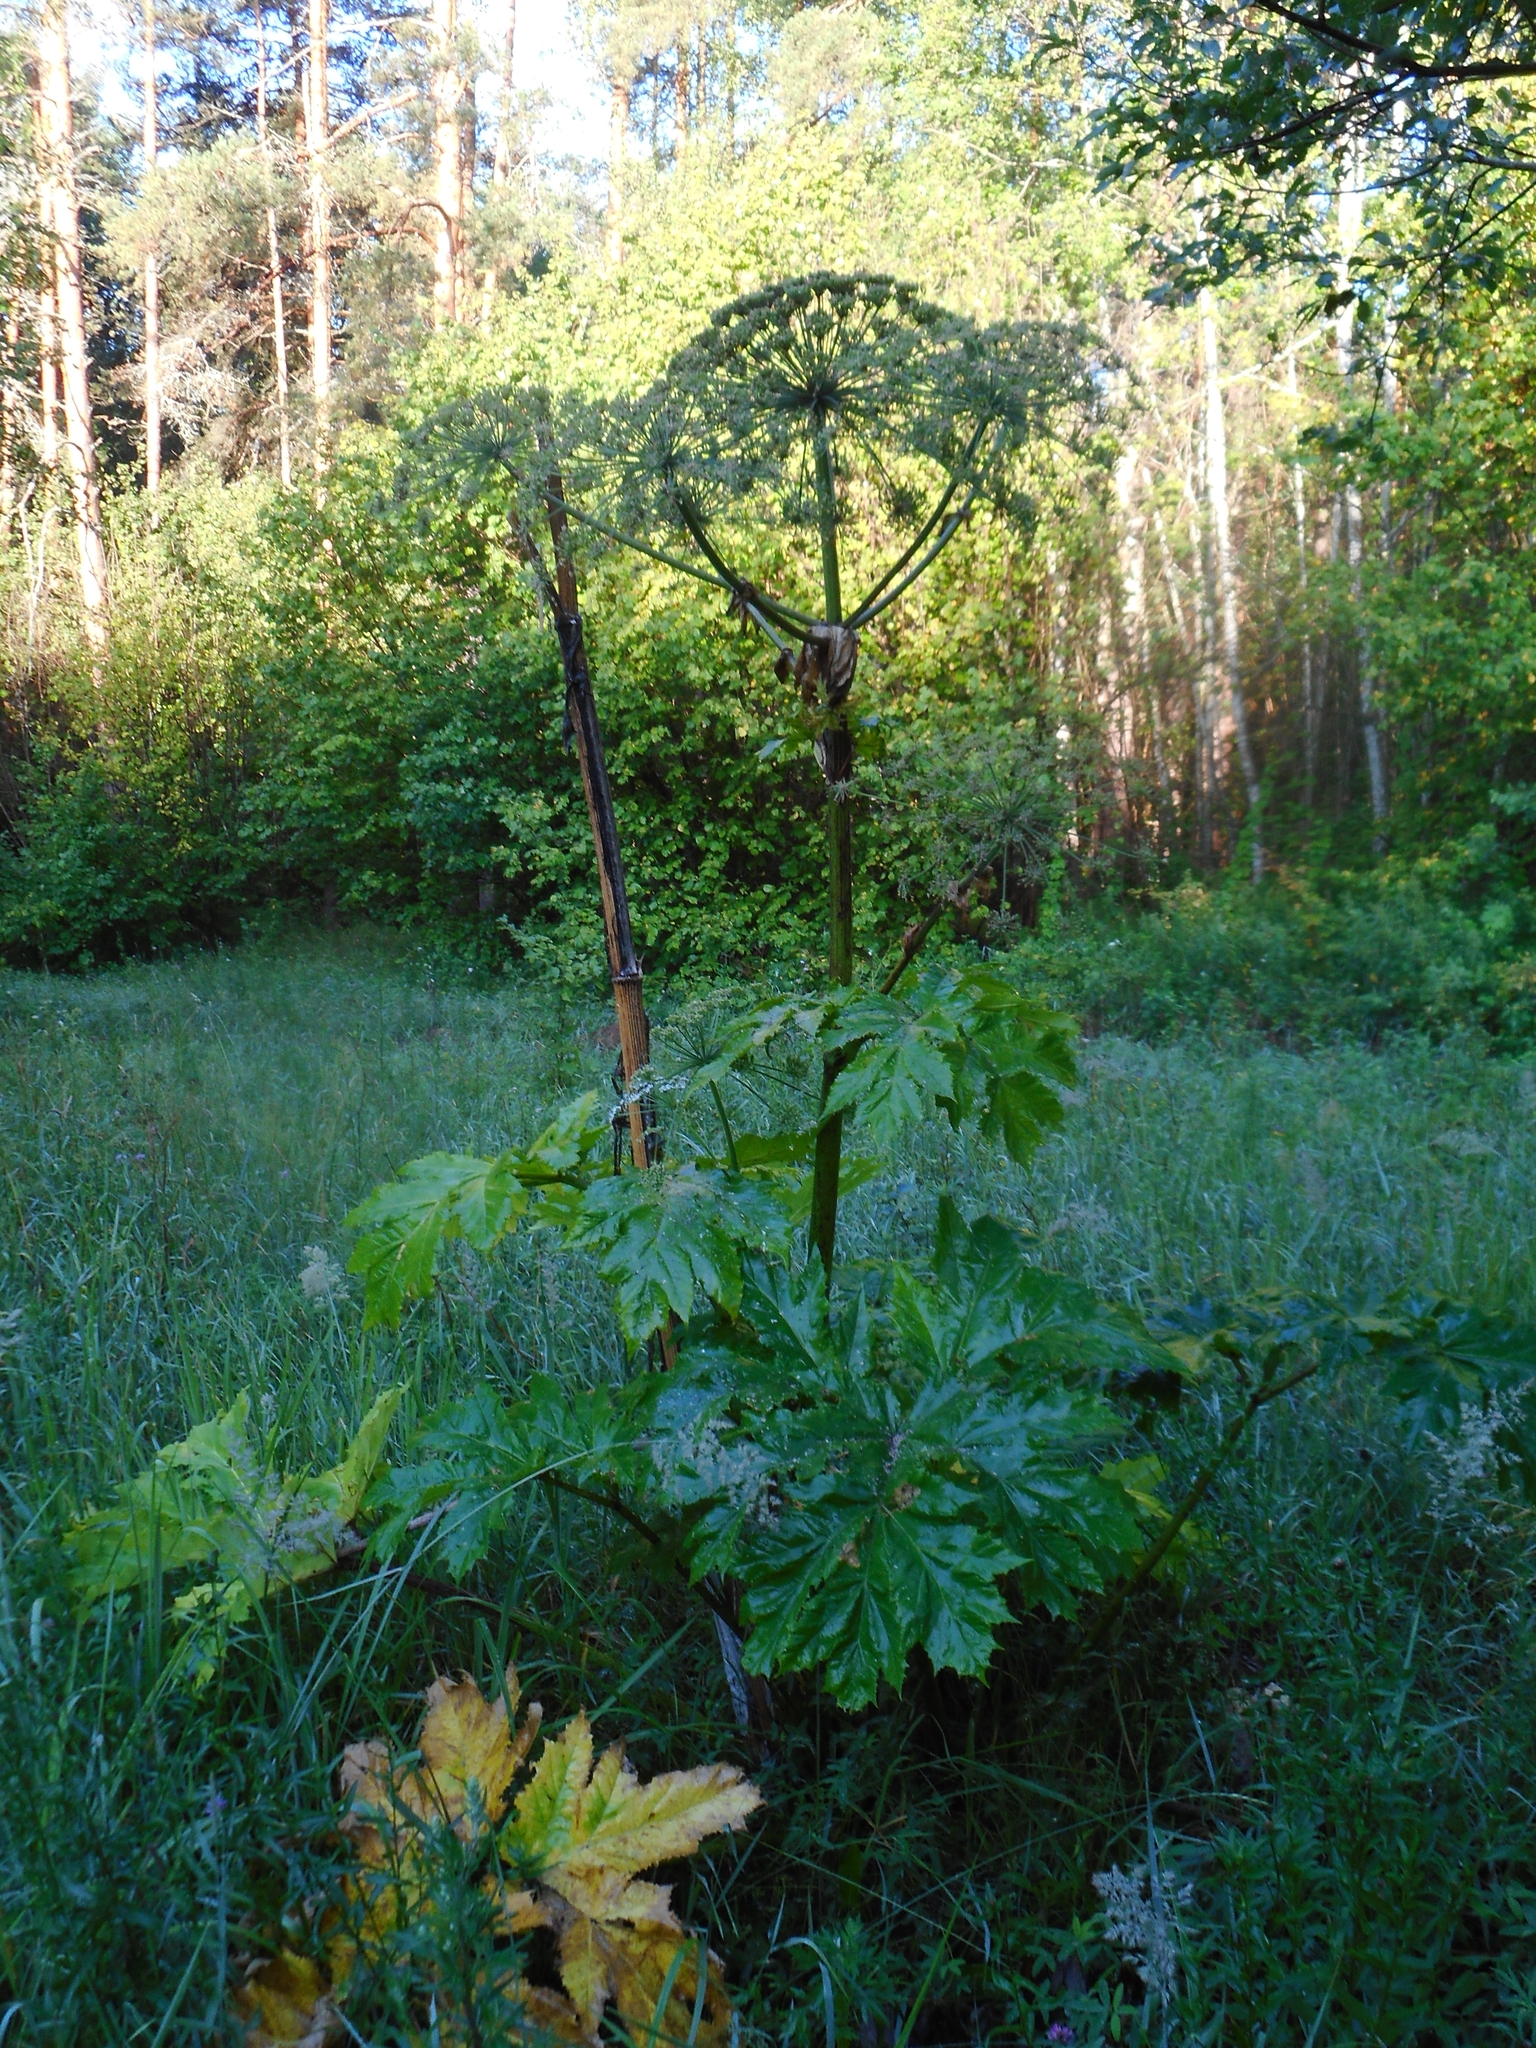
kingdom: Plantae
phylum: Tracheophyta
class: Magnoliopsida
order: Apiales
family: Apiaceae
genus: Heracleum
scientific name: Heracleum sosnowskyi
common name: Sosnowsky's hogweed
